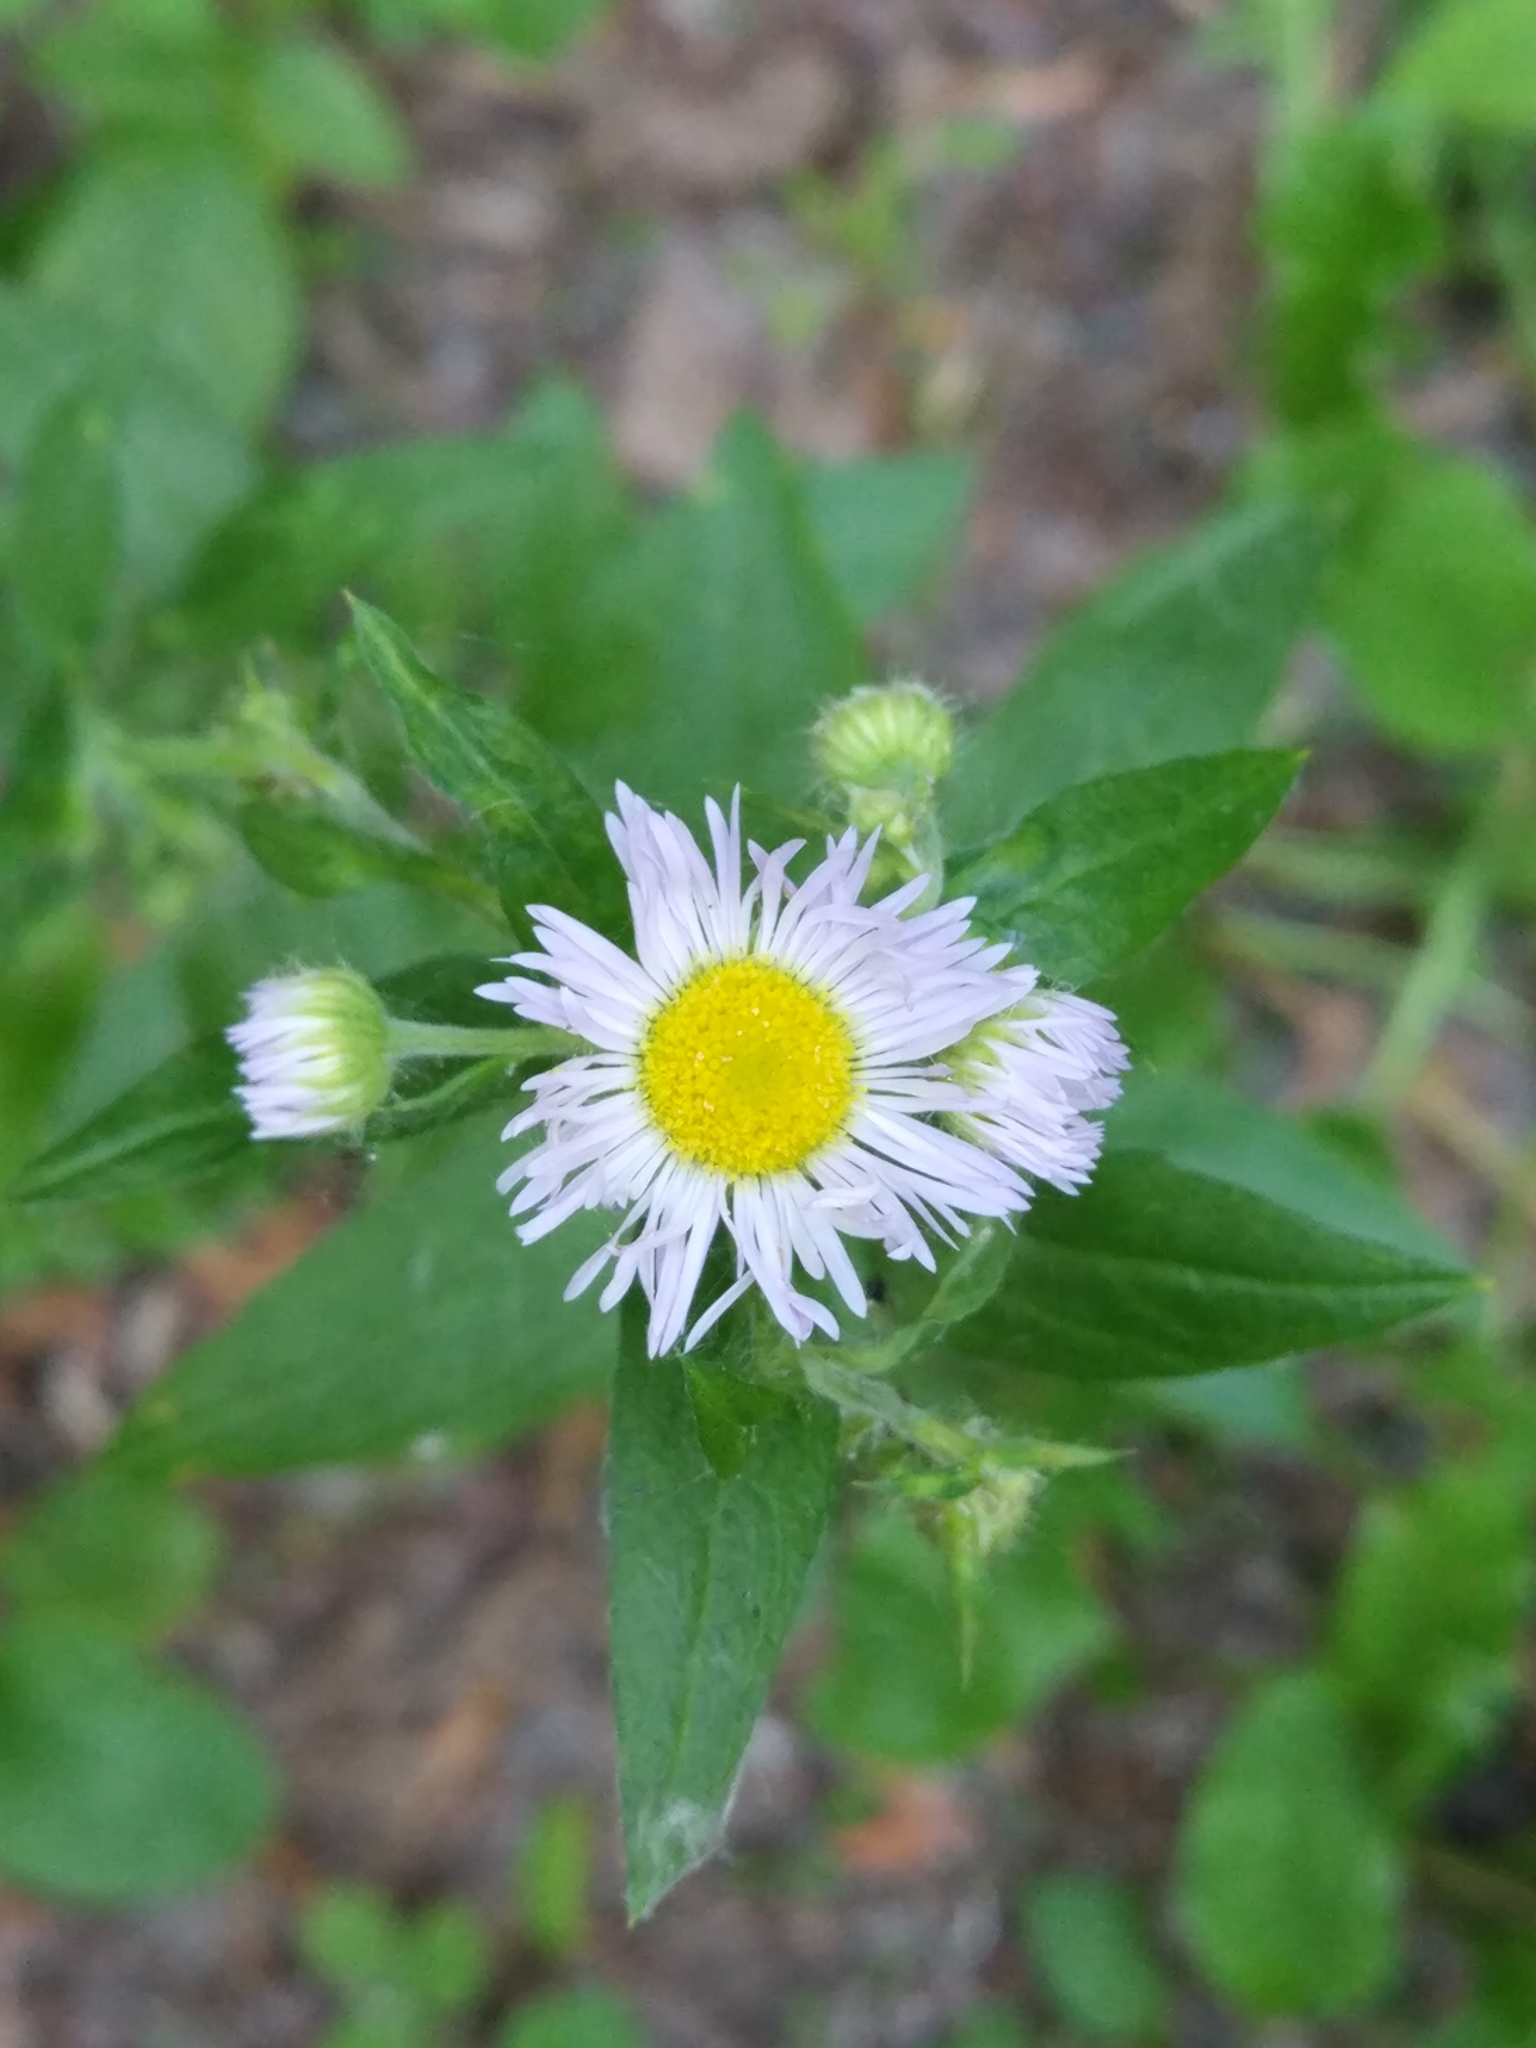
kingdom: Plantae
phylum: Tracheophyta
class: Magnoliopsida
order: Asterales
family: Asteraceae
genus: Erigeron
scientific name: Erigeron annuus
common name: Tall fleabane
